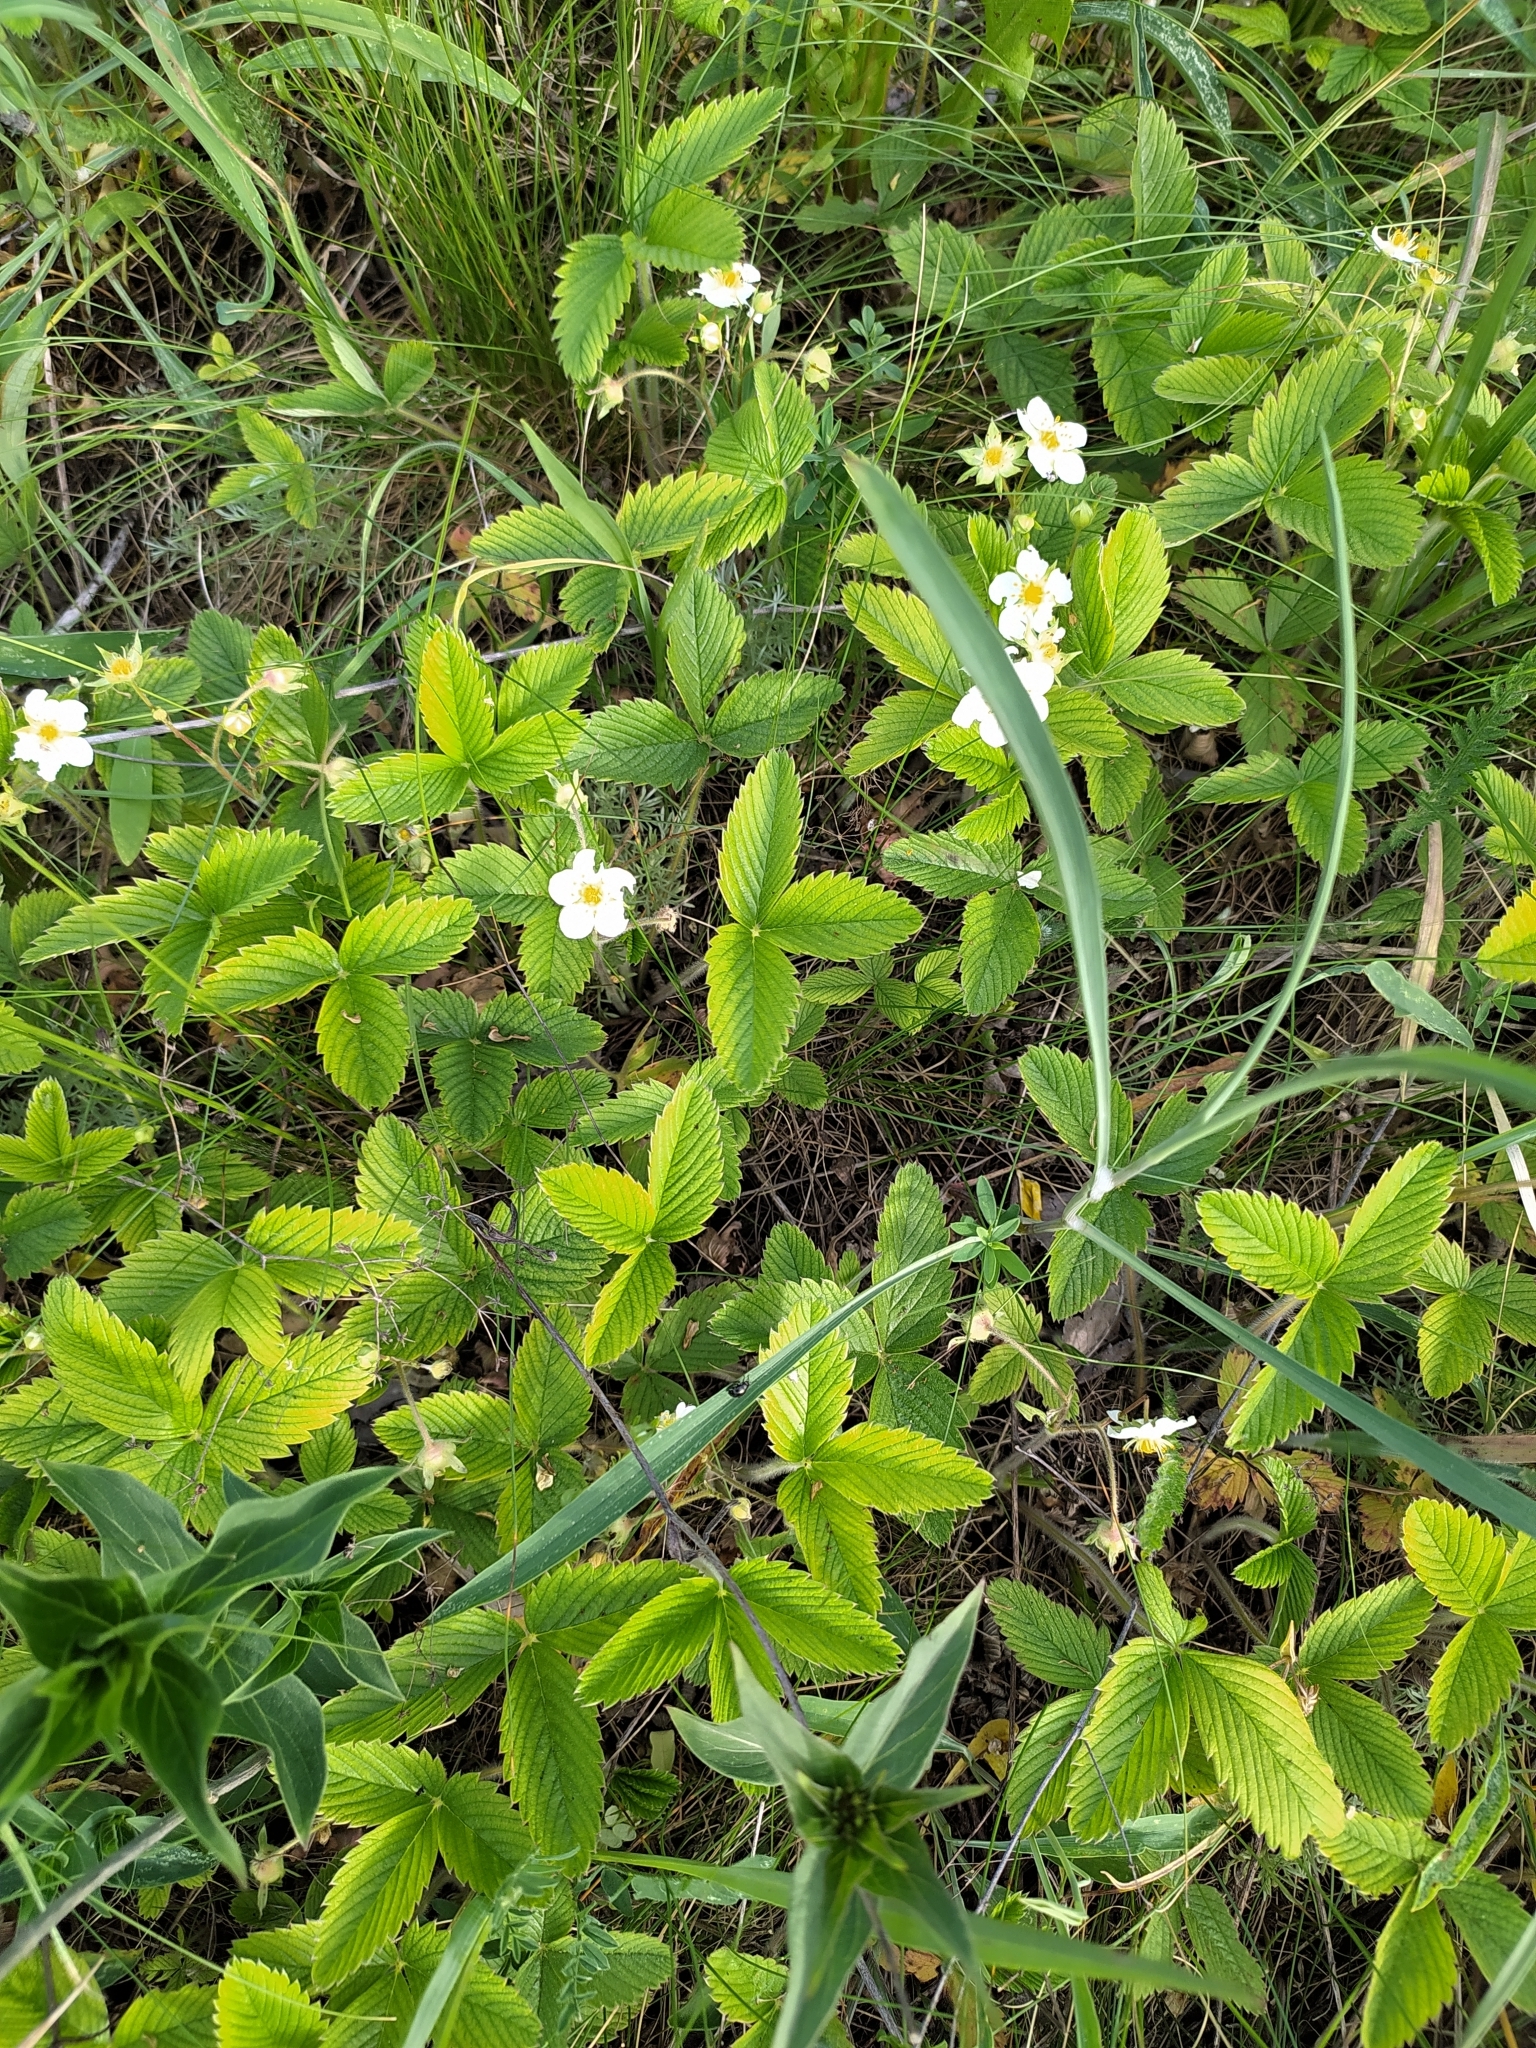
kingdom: Plantae
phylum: Tracheophyta
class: Magnoliopsida
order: Rosales
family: Rosaceae
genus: Fragaria
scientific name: Fragaria viridis
